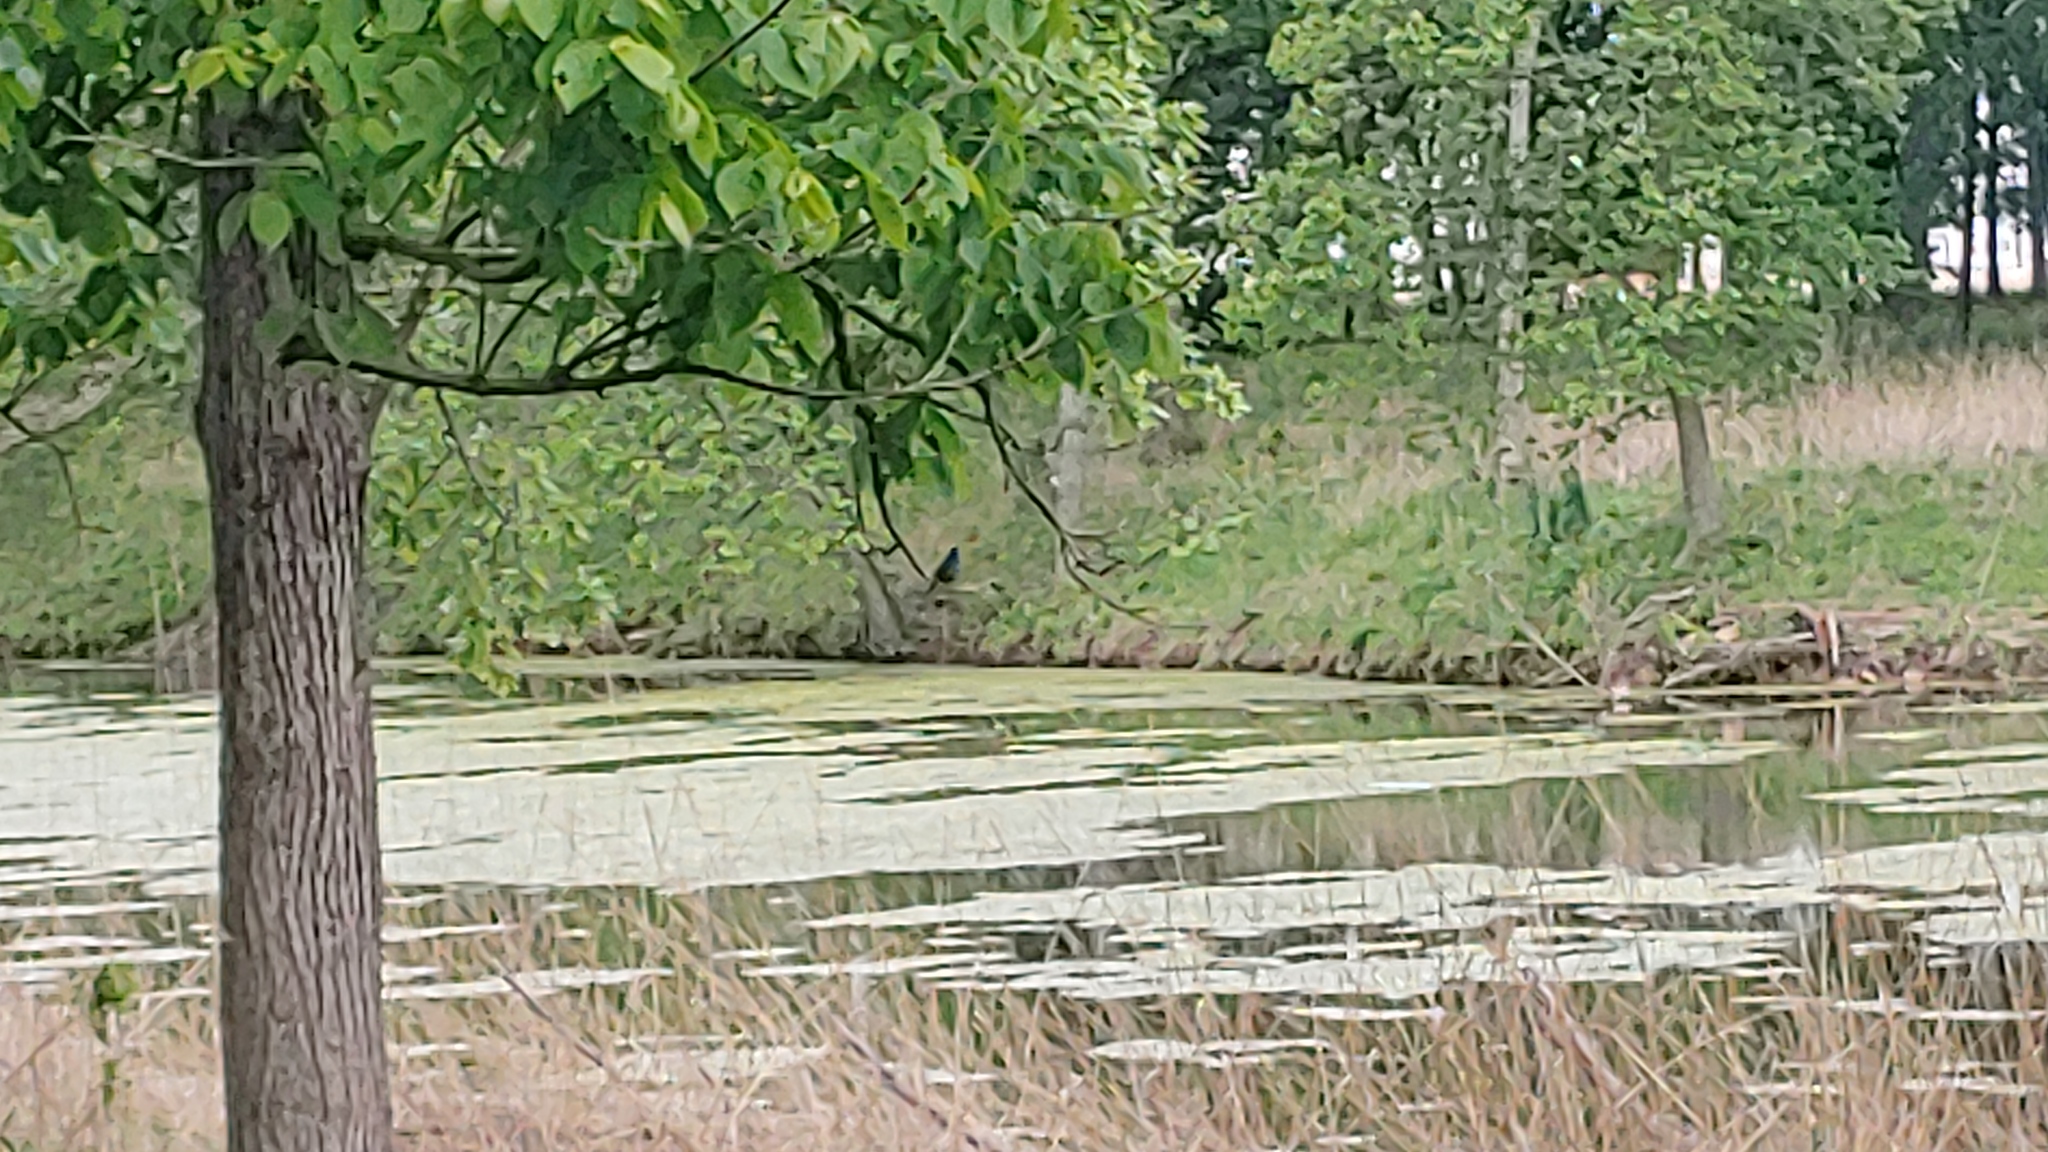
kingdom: Animalia
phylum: Chordata
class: Aves
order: Passeriformes
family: Cardinalidae
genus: Passerina
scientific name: Passerina cyanea
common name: Indigo bunting
